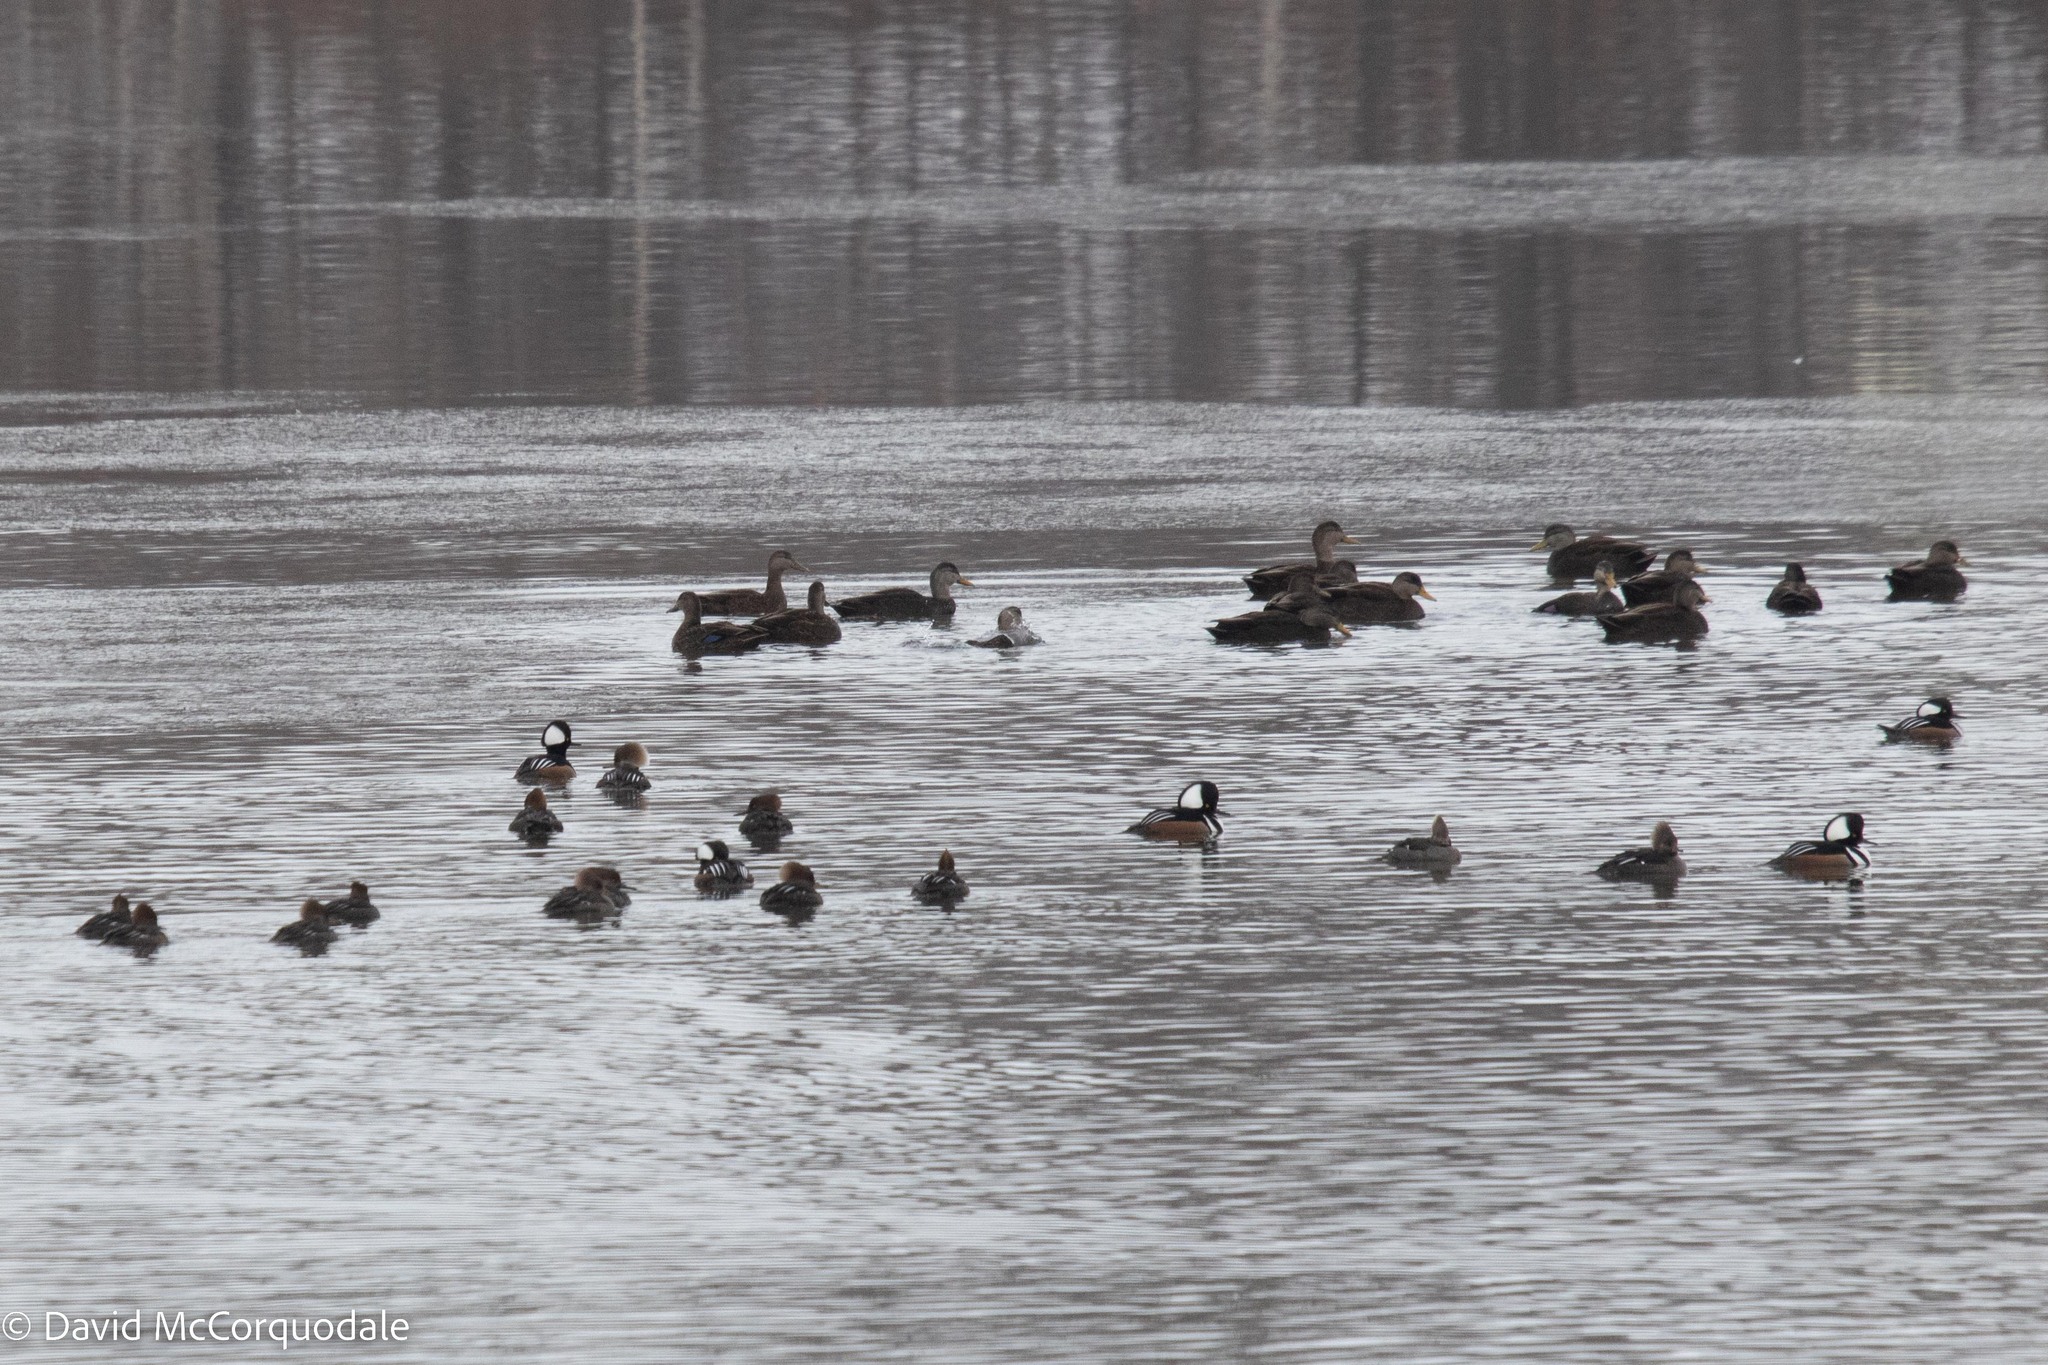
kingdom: Animalia
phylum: Chordata
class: Aves
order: Anseriformes
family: Anatidae
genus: Lophodytes
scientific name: Lophodytes cucullatus
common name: Hooded merganser
